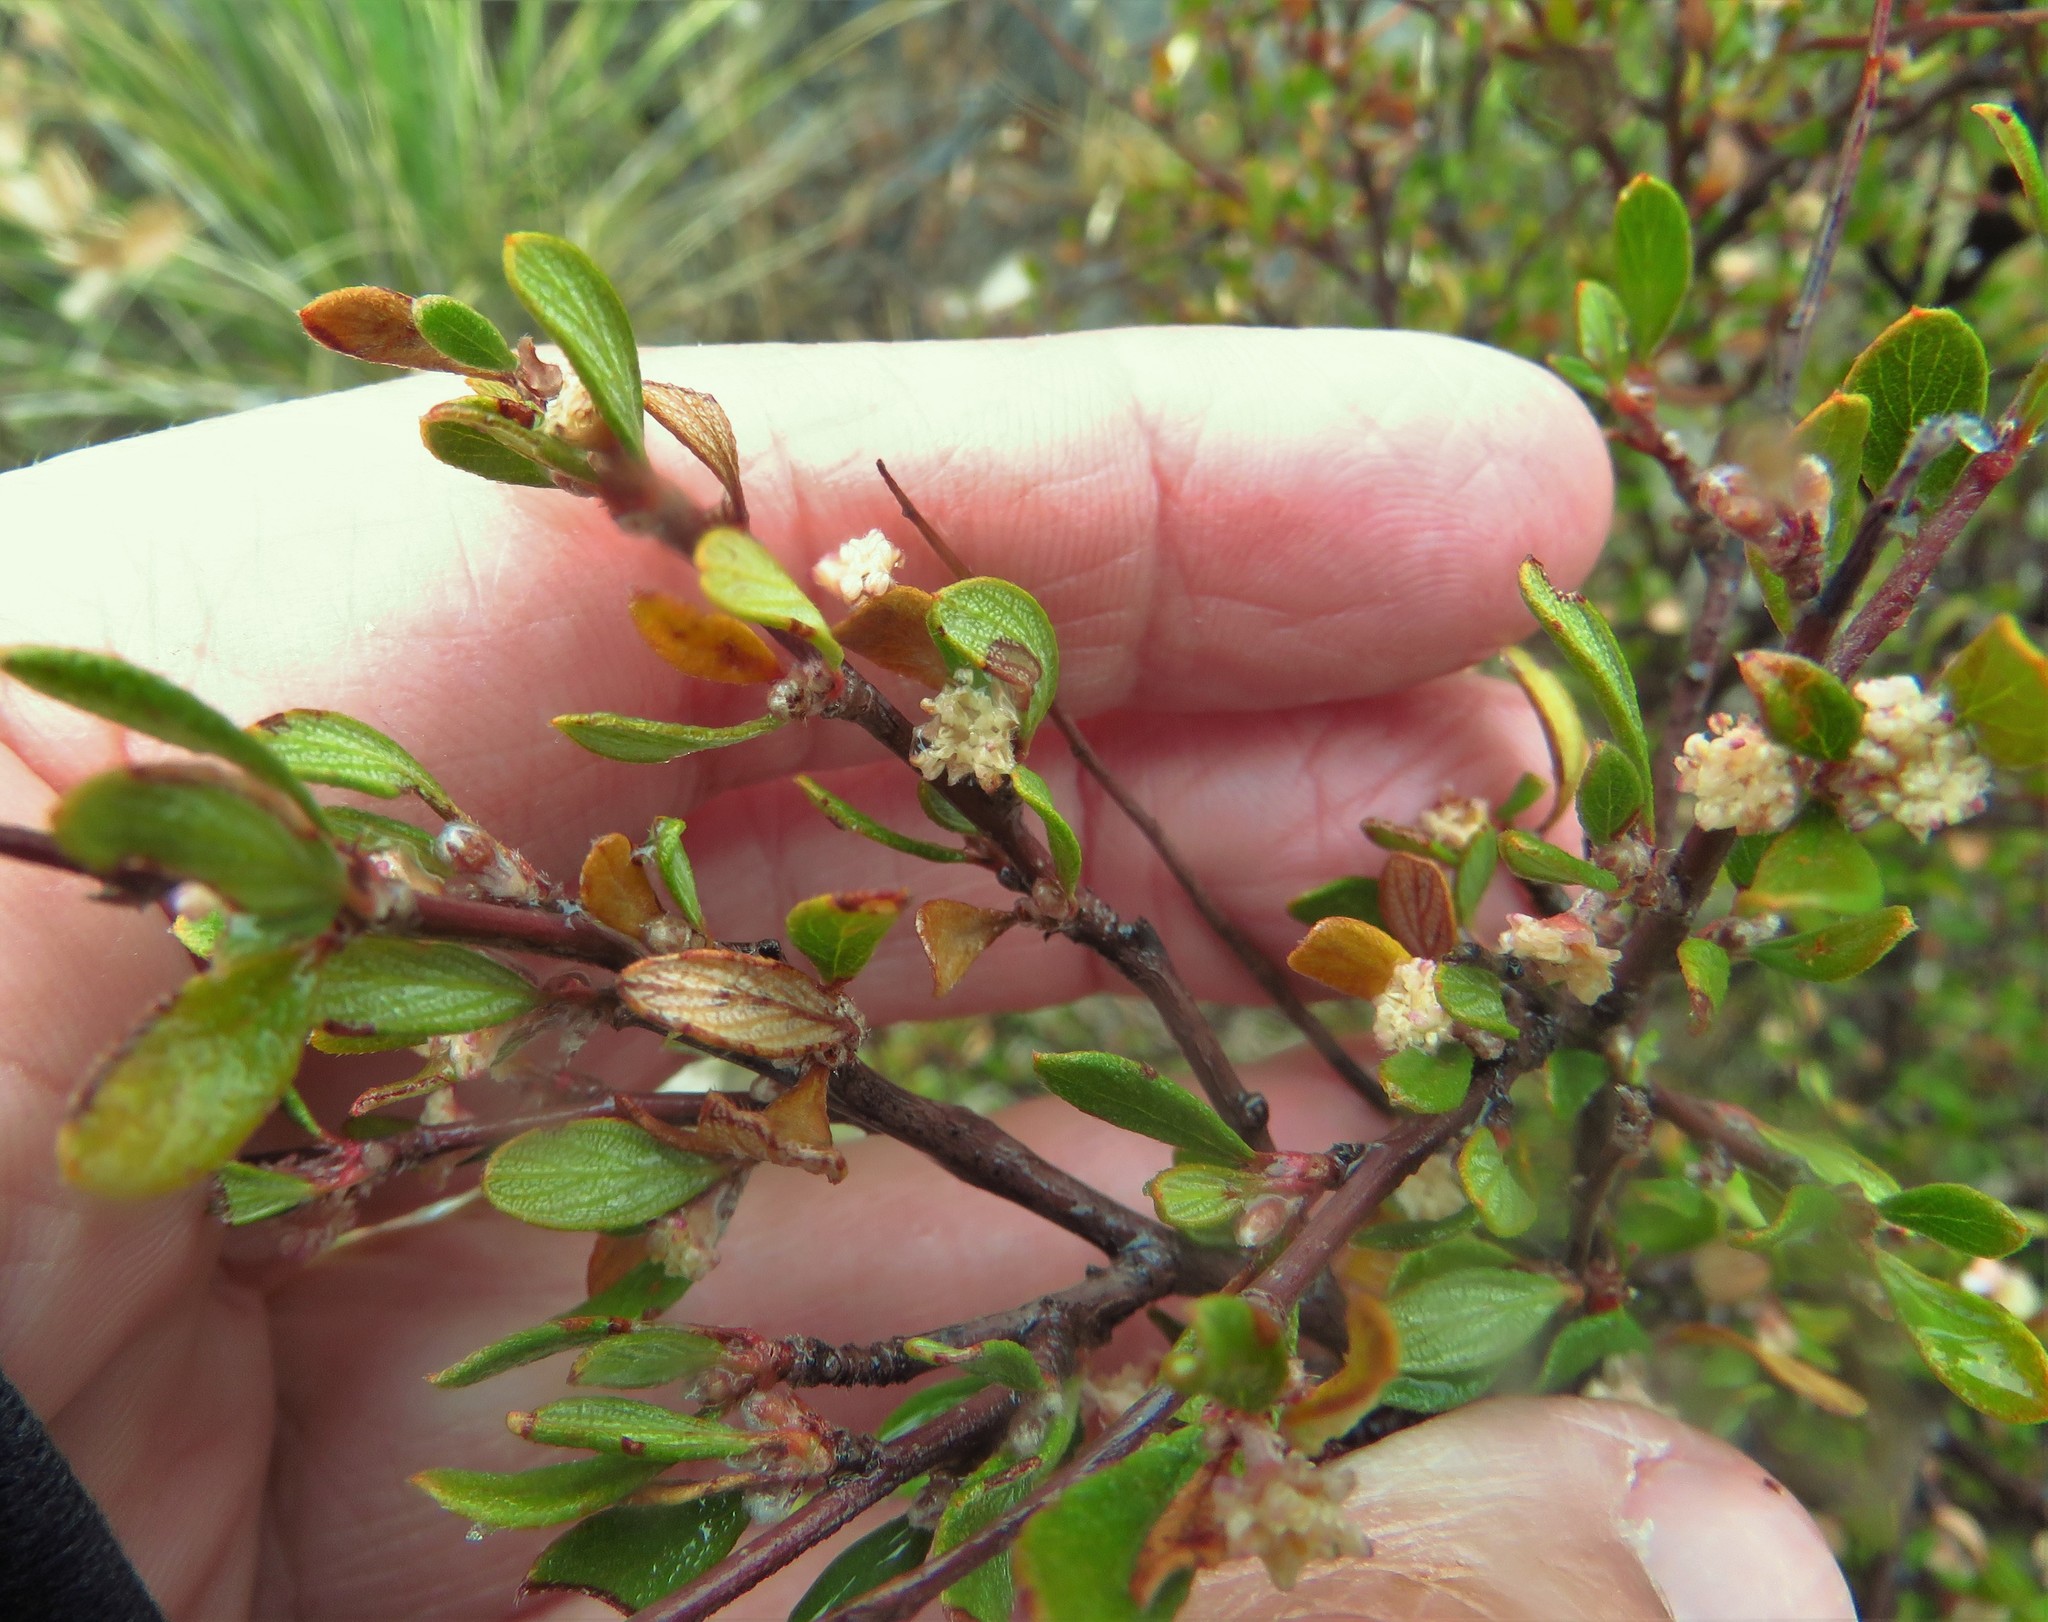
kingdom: Plantae
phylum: Tracheophyta
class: Magnoliopsida
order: Rosales
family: Rosaceae
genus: Cercocarpus
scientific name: Cercocarpus breviflorus
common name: Wright's mountain-mahogany
